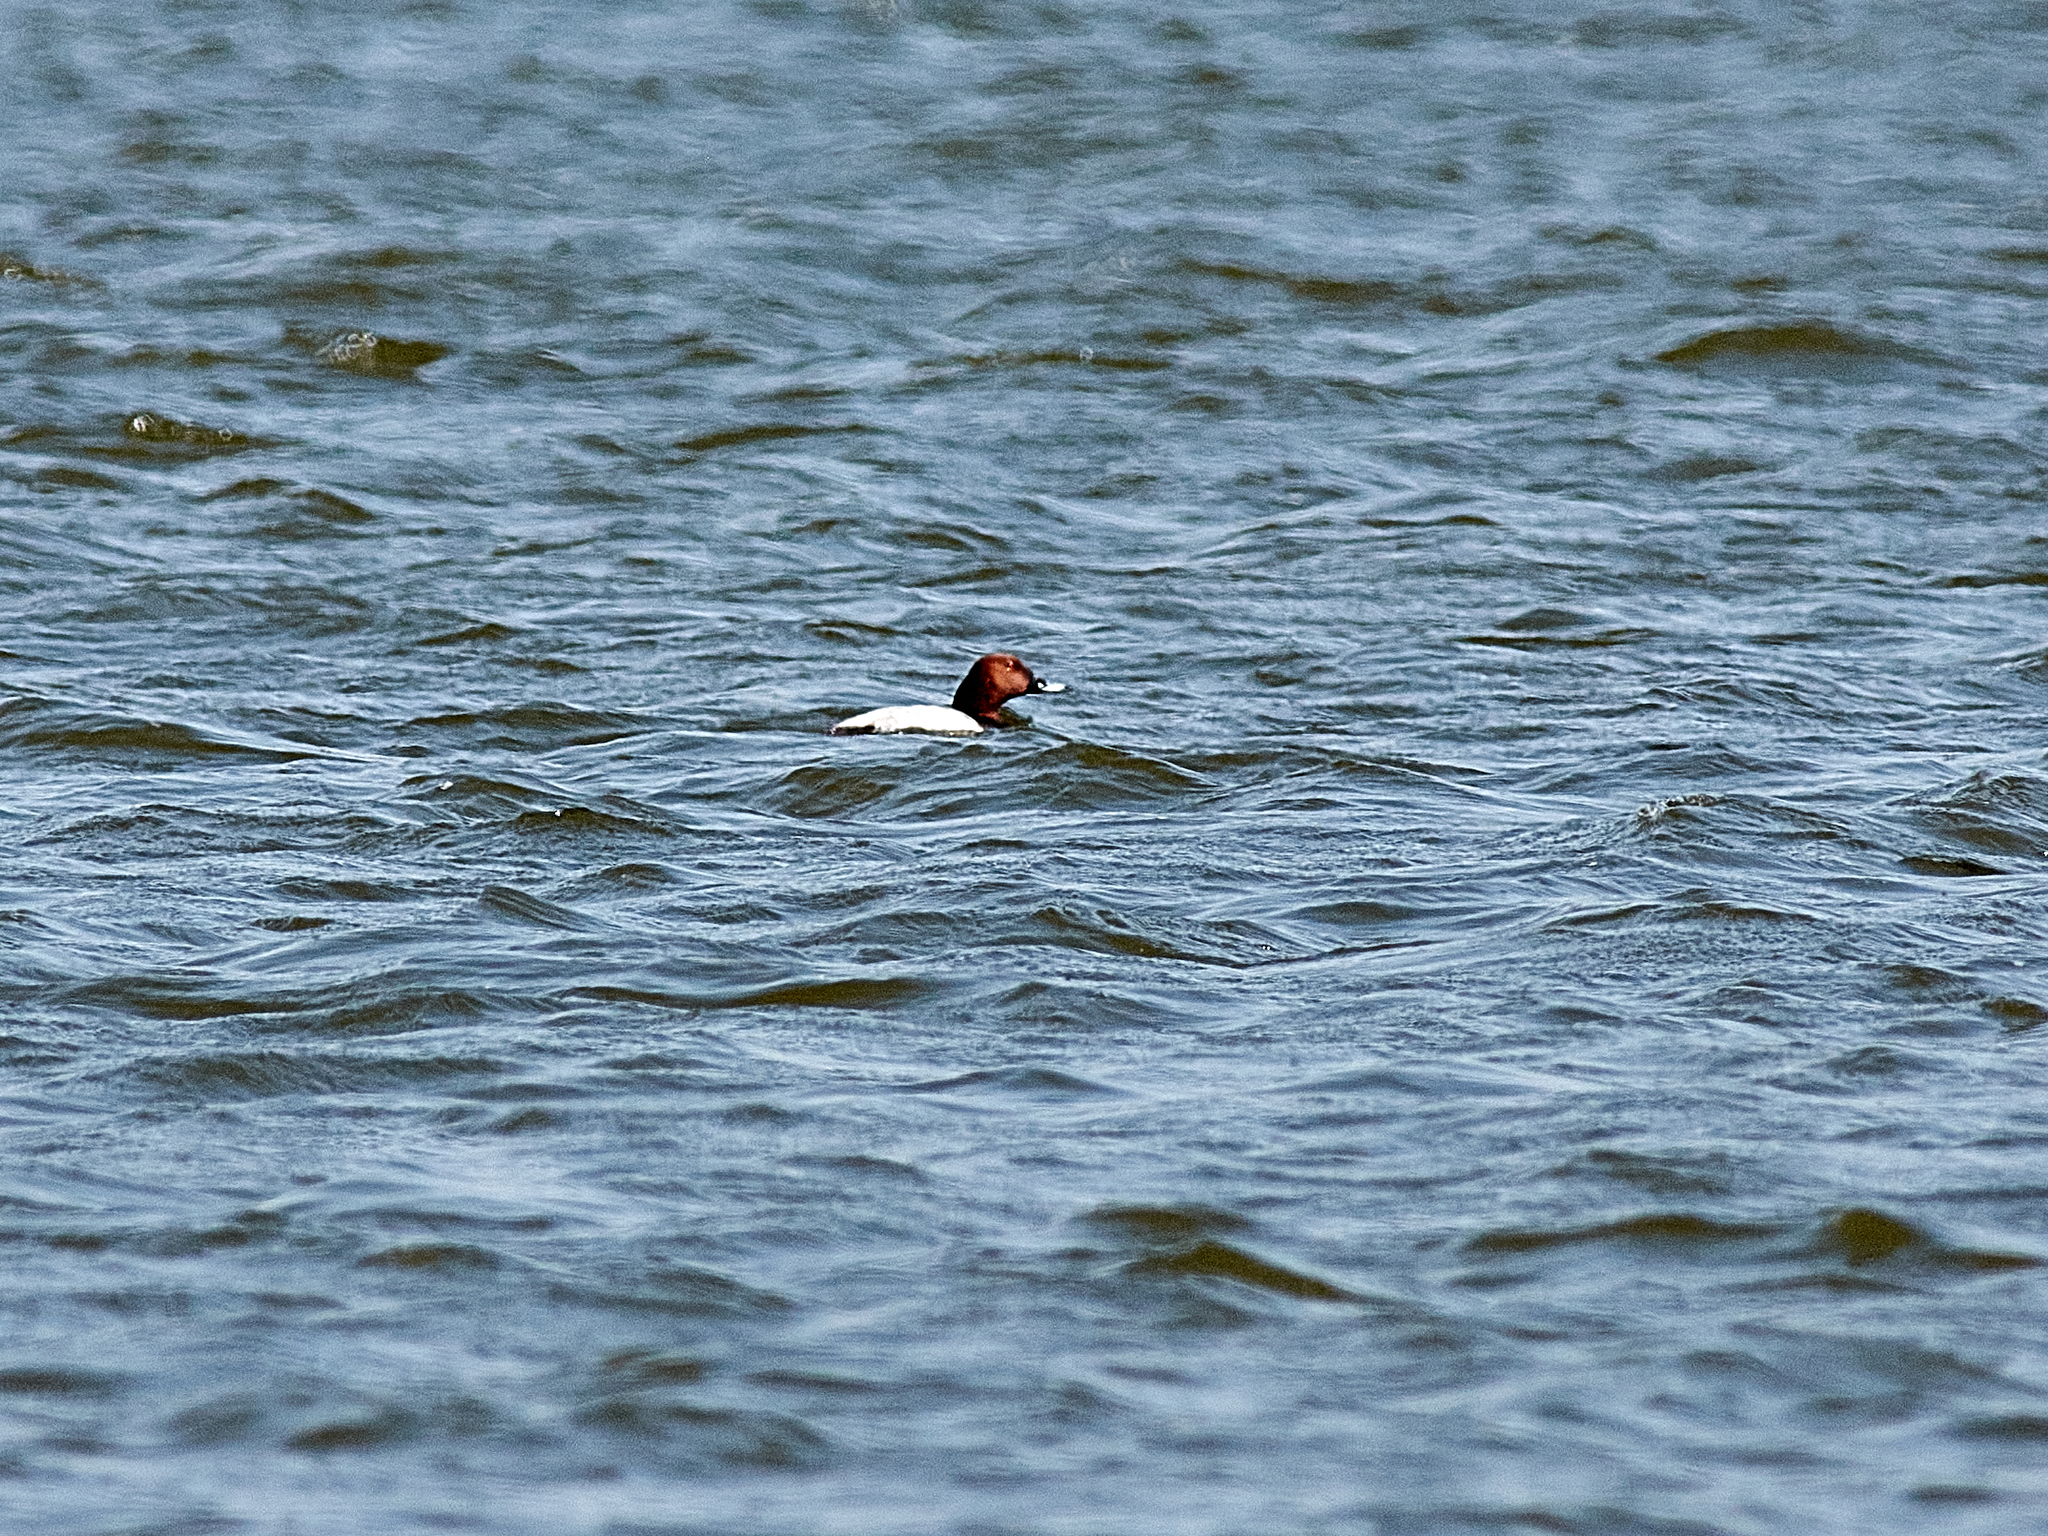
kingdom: Animalia
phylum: Chordata
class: Aves
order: Anseriformes
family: Anatidae
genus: Aythya
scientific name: Aythya ferina
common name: Common pochard
